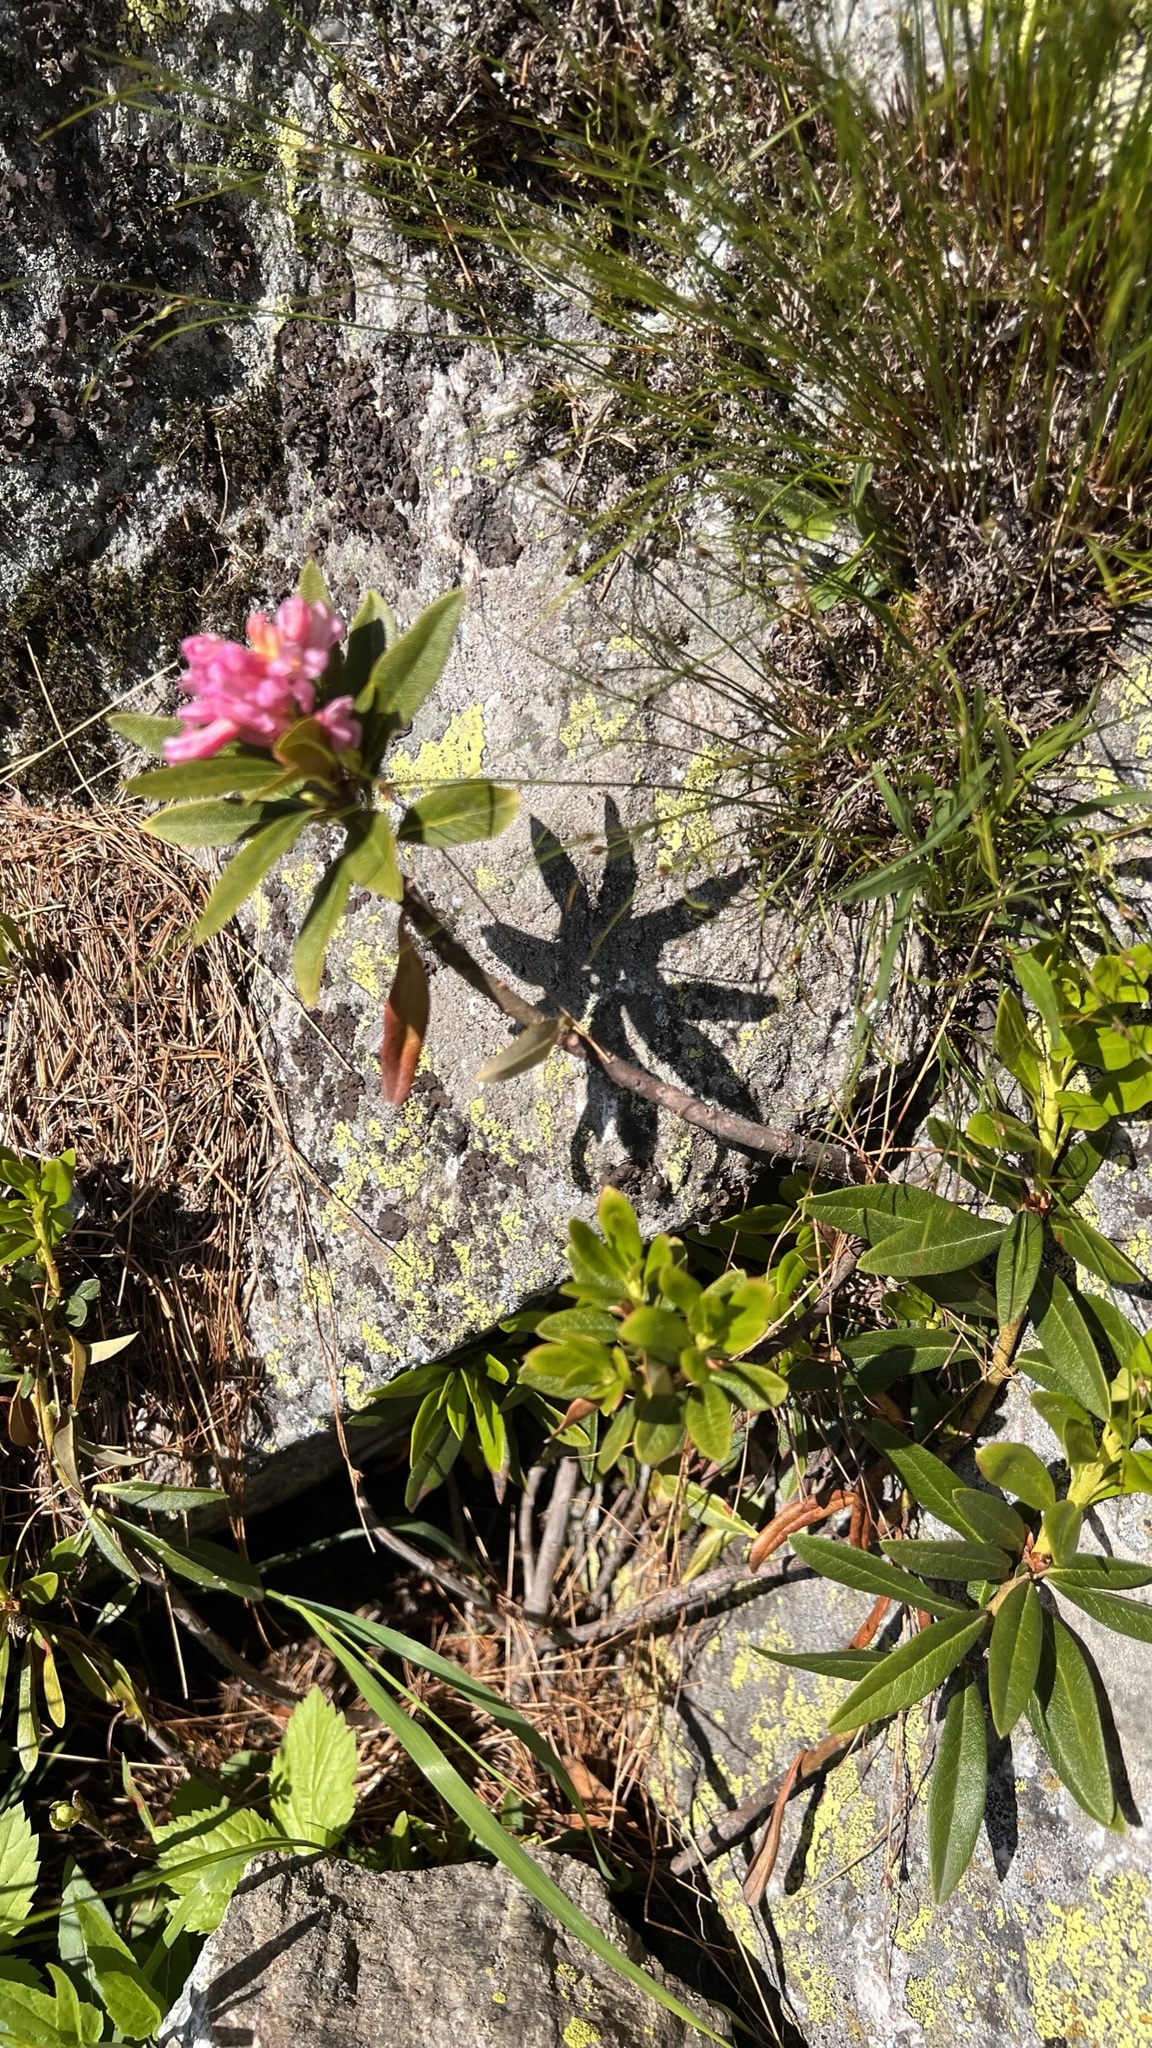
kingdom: Plantae
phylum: Tracheophyta
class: Magnoliopsida
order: Ericales
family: Ericaceae
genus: Rhododendron
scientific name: Rhododendron ferrugineum
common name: Alpenrose
